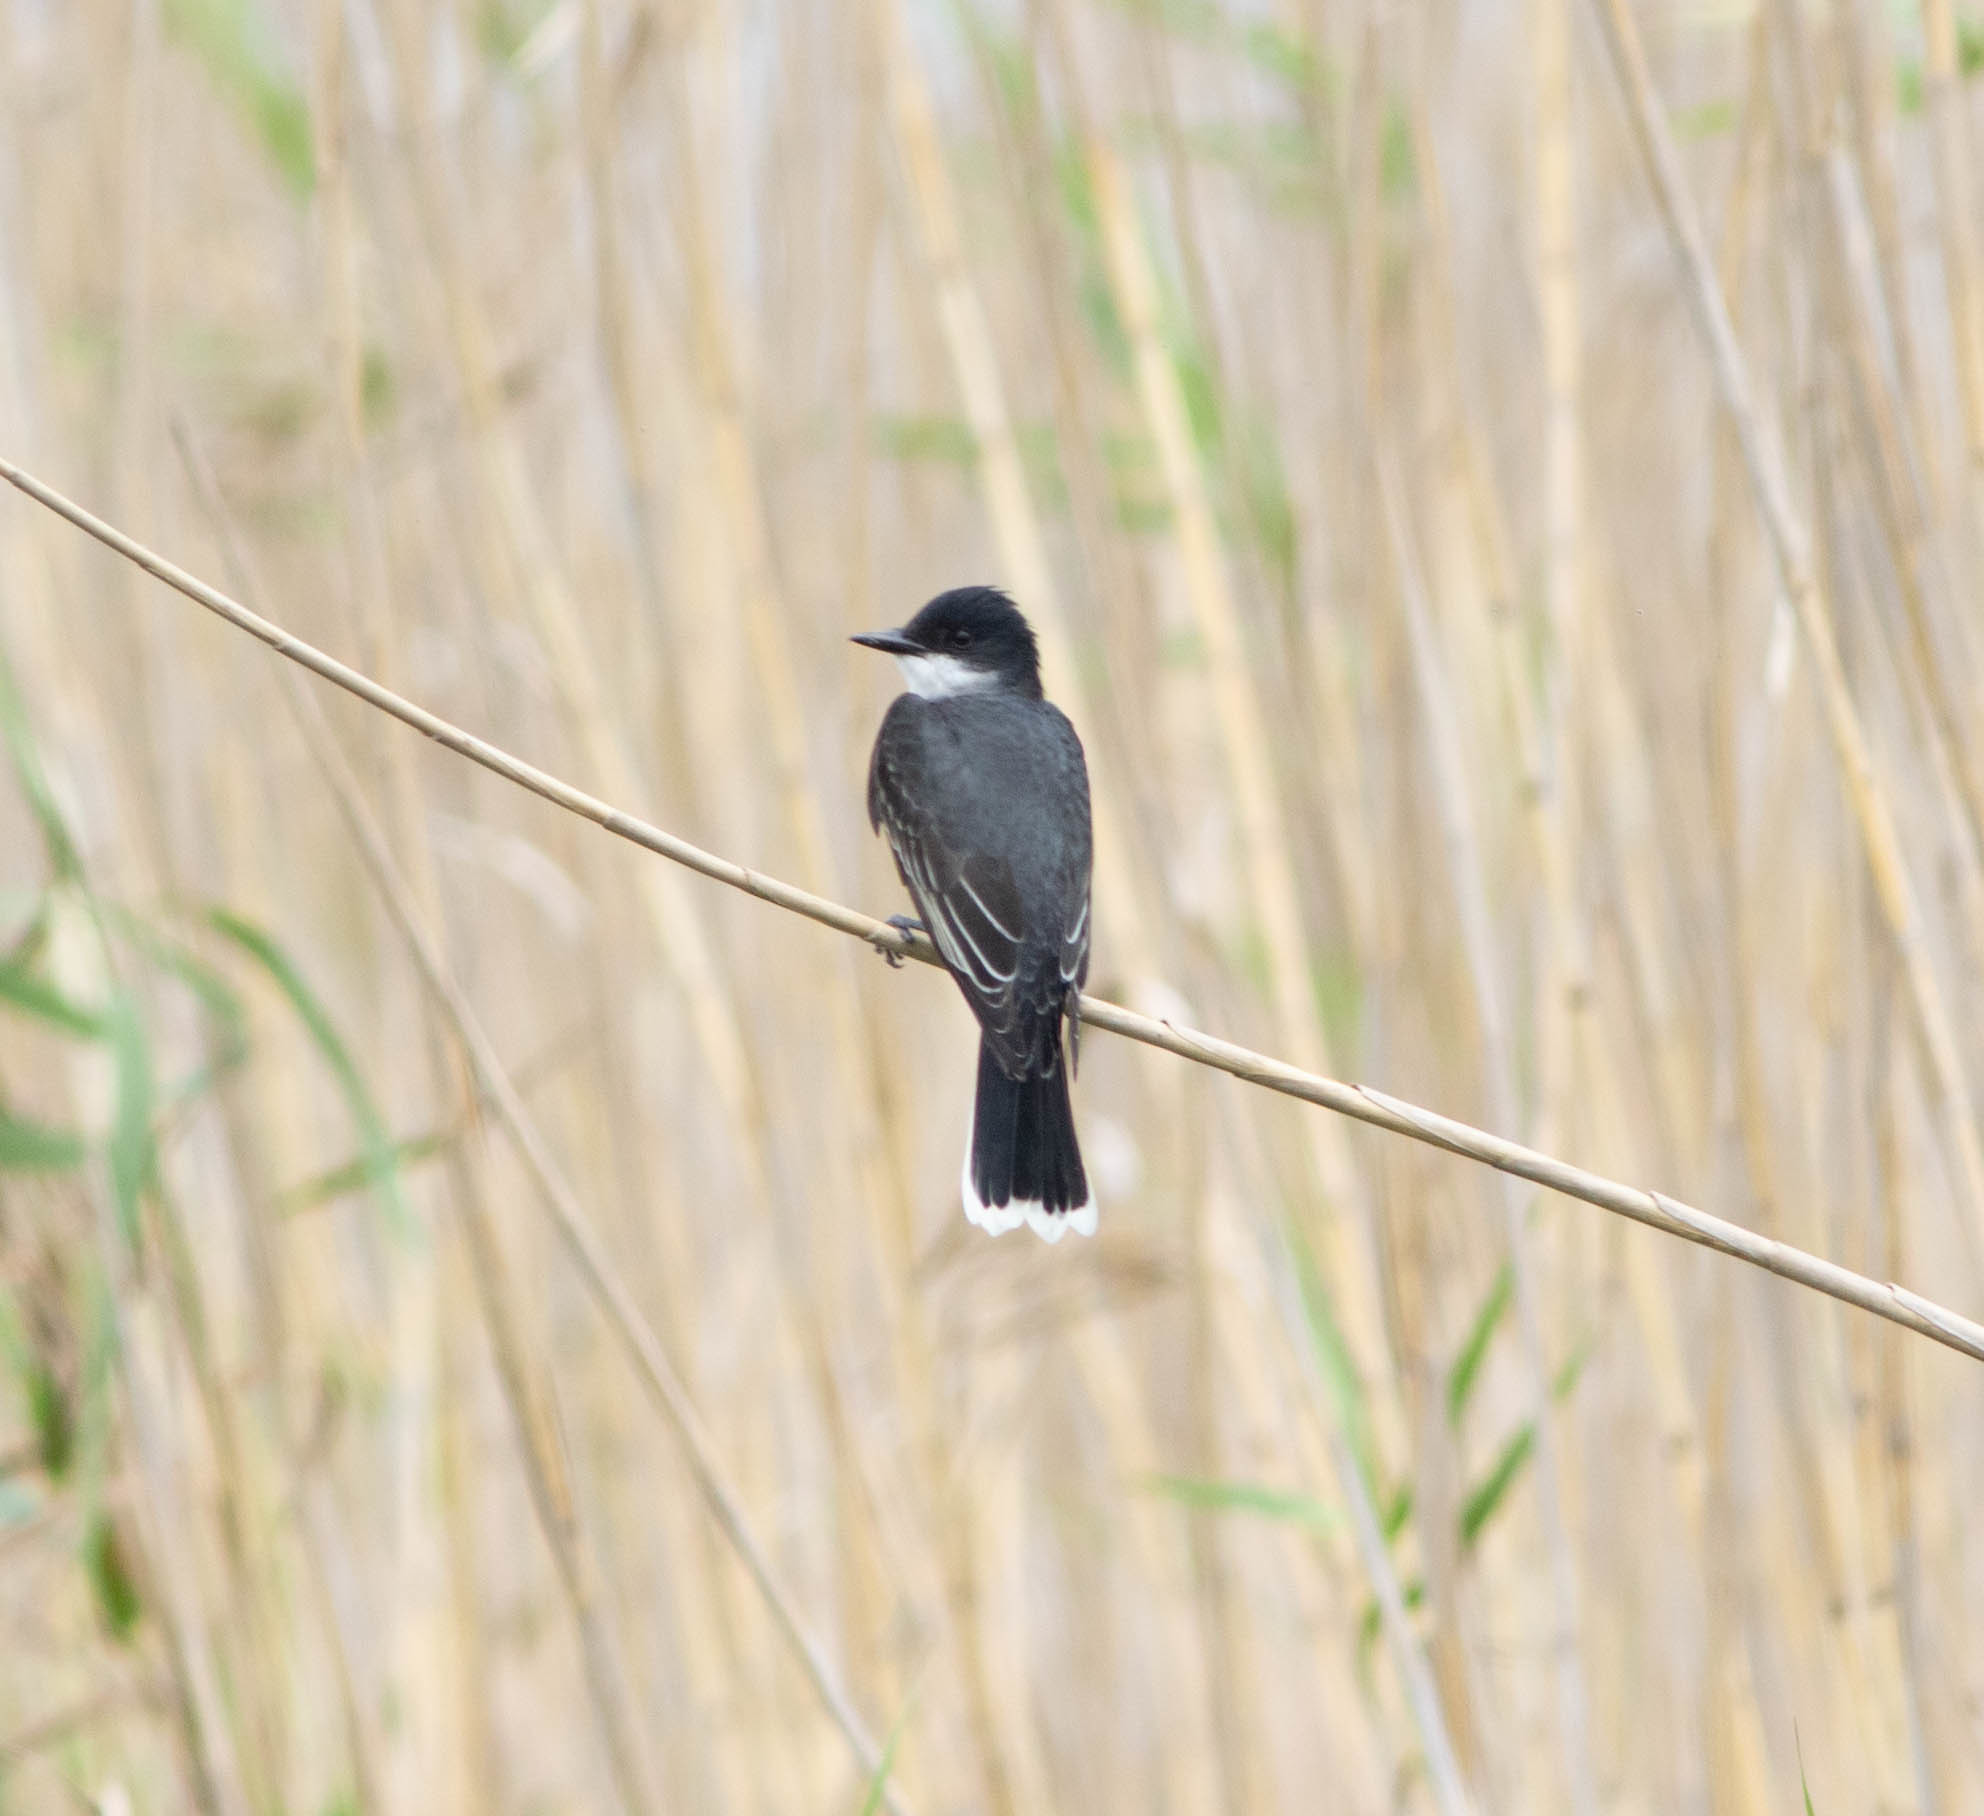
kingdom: Animalia
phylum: Chordata
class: Aves
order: Passeriformes
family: Tyrannidae
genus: Tyrannus
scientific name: Tyrannus tyrannus
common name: Eastern kingbird
